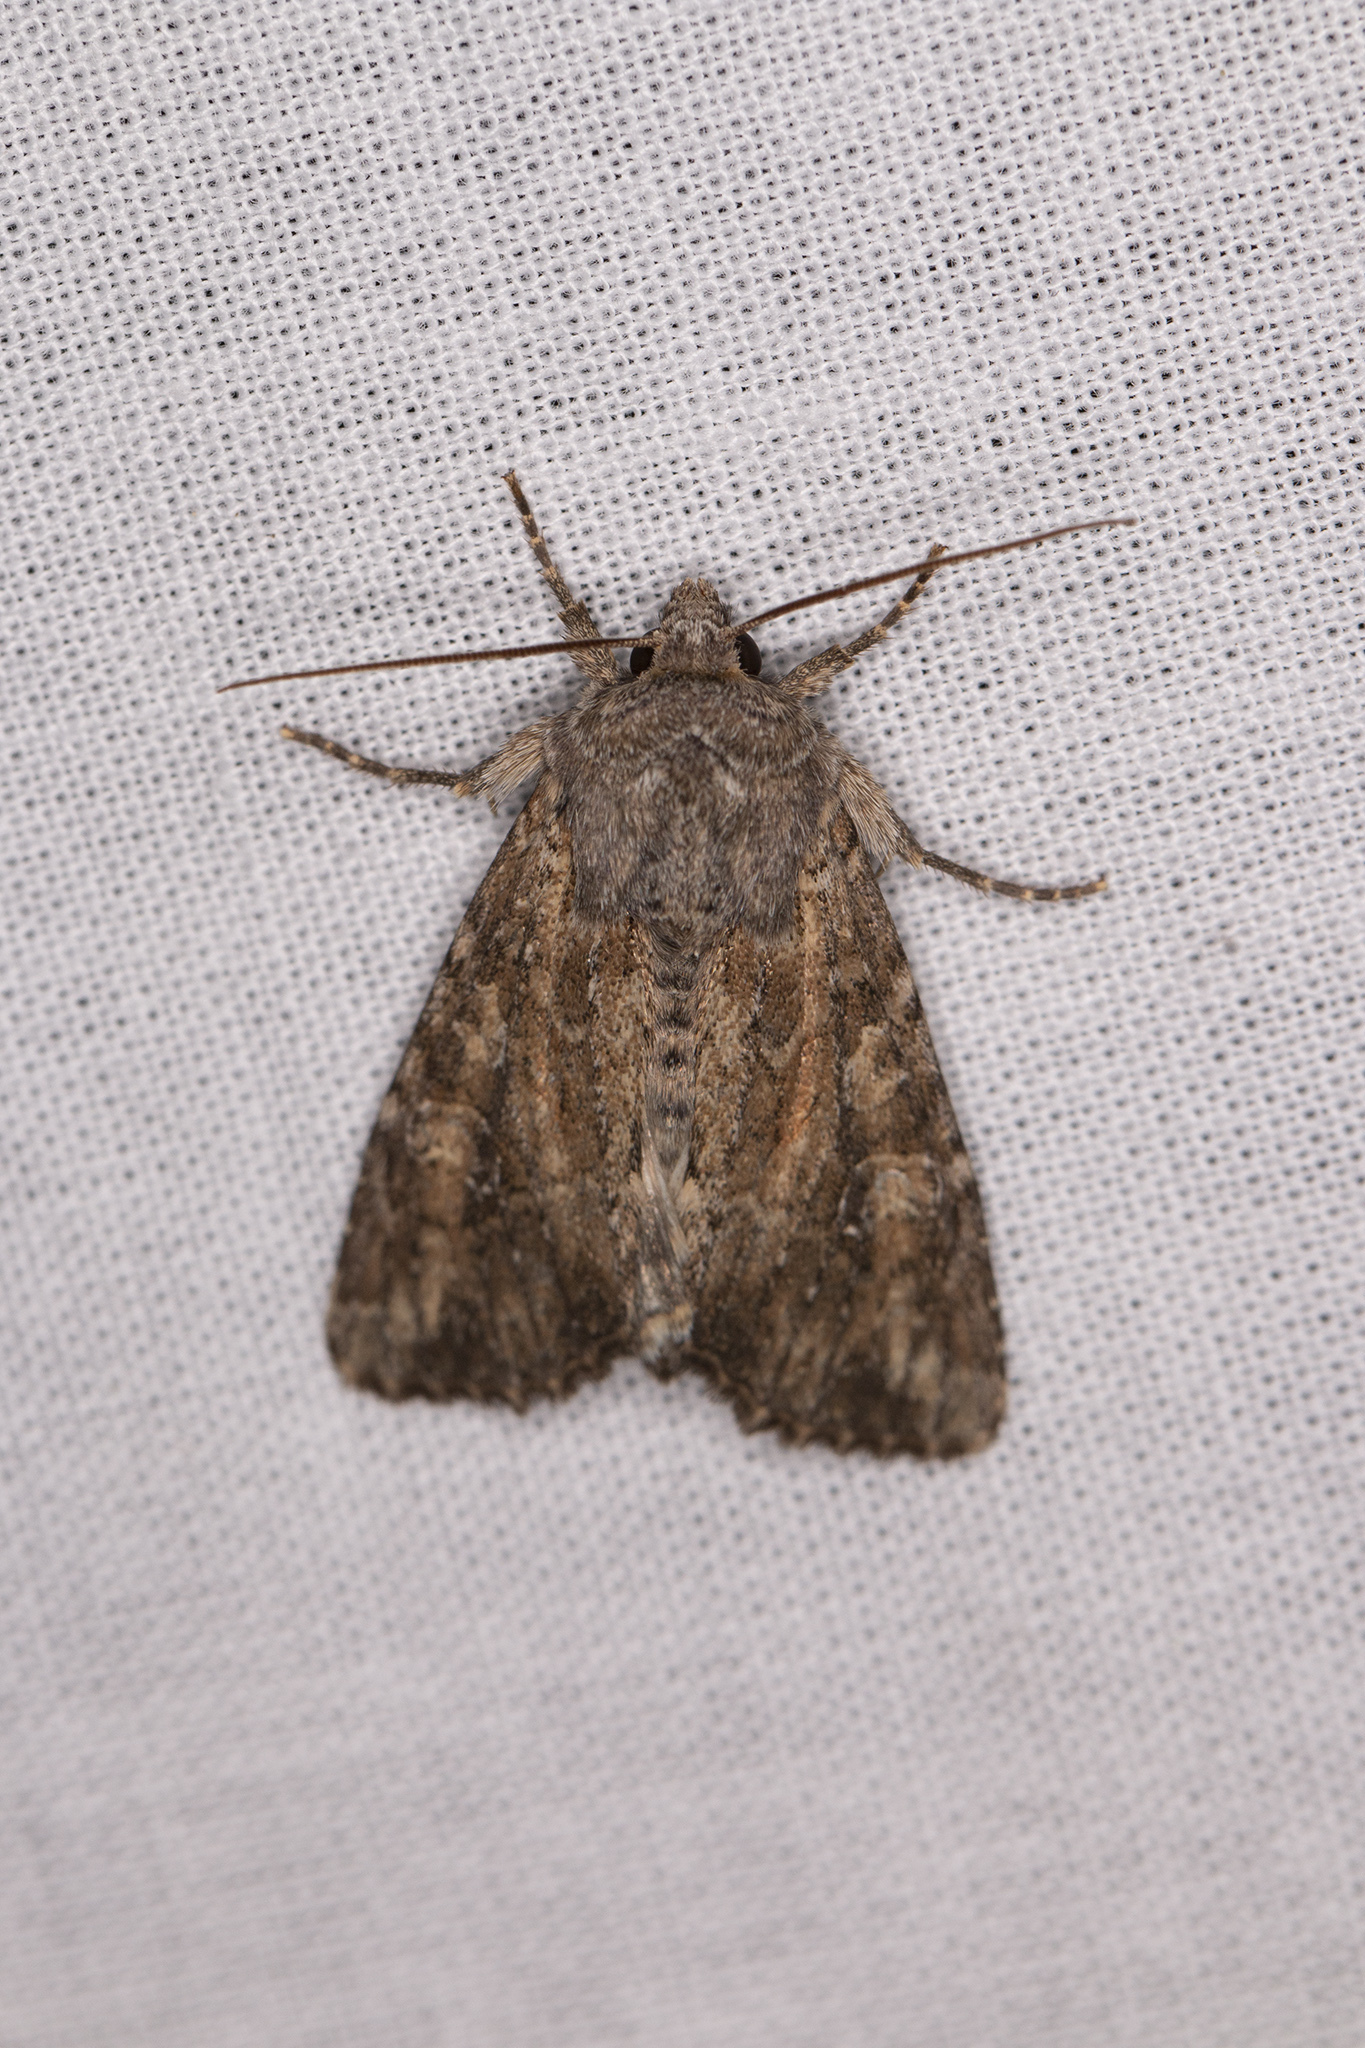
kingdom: Animalia
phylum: Arthropoda
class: Insecta
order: Lepidoptera
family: Noctuidae
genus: Apamea
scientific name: Apamea anceps
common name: Large nutmeg
